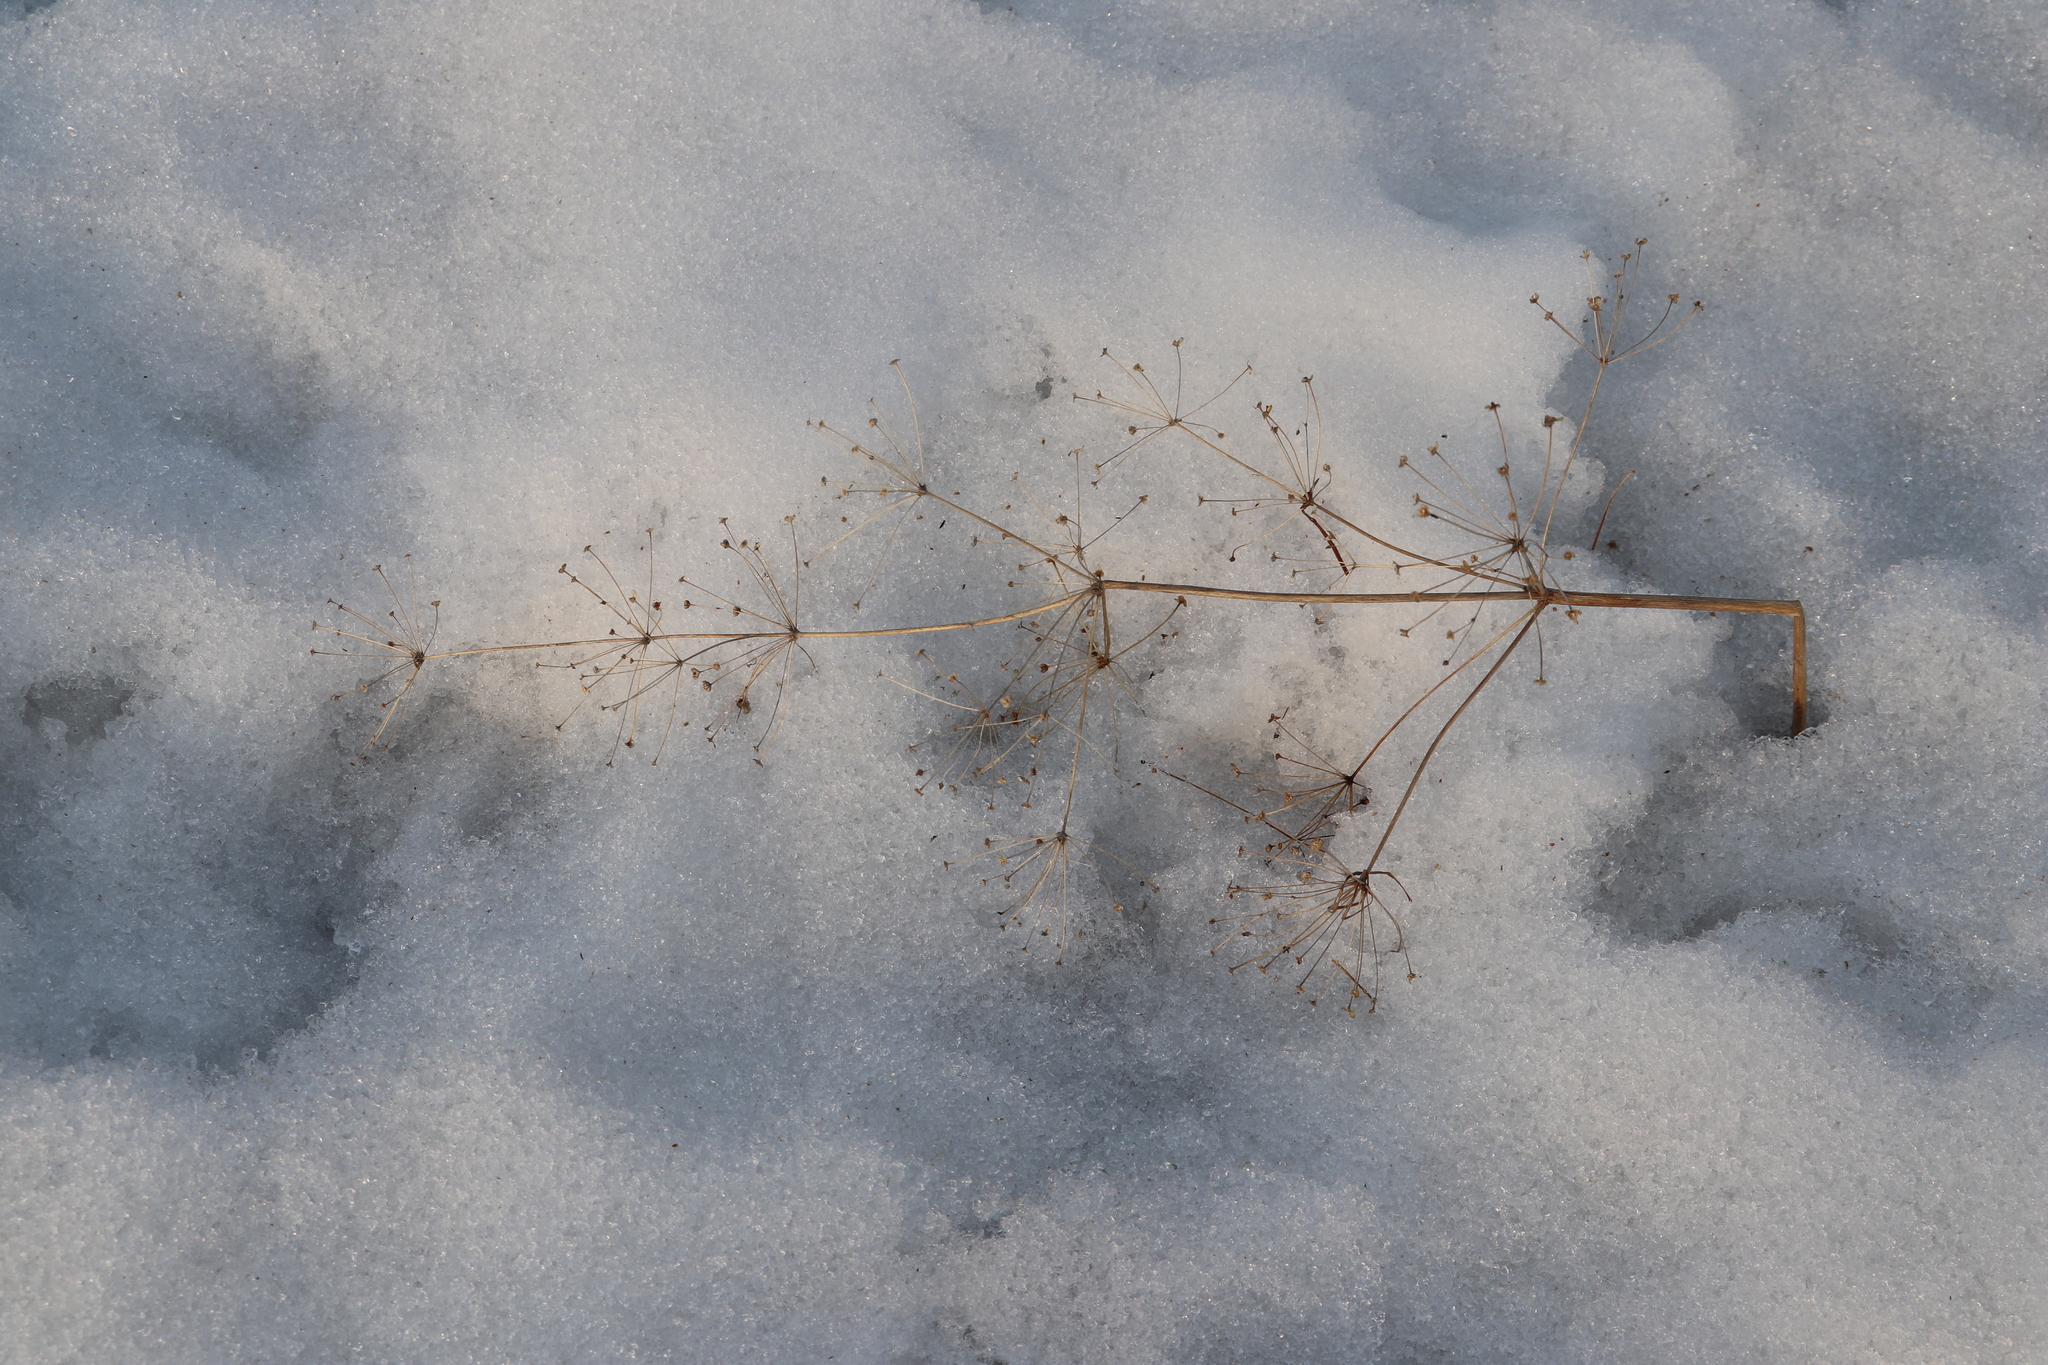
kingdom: Plantae
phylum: Tracheophyta
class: Liliopsida
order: Alismatales
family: Alismataceae
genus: Alisma
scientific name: Alisma plantago-aquatica
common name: Water-plantain
